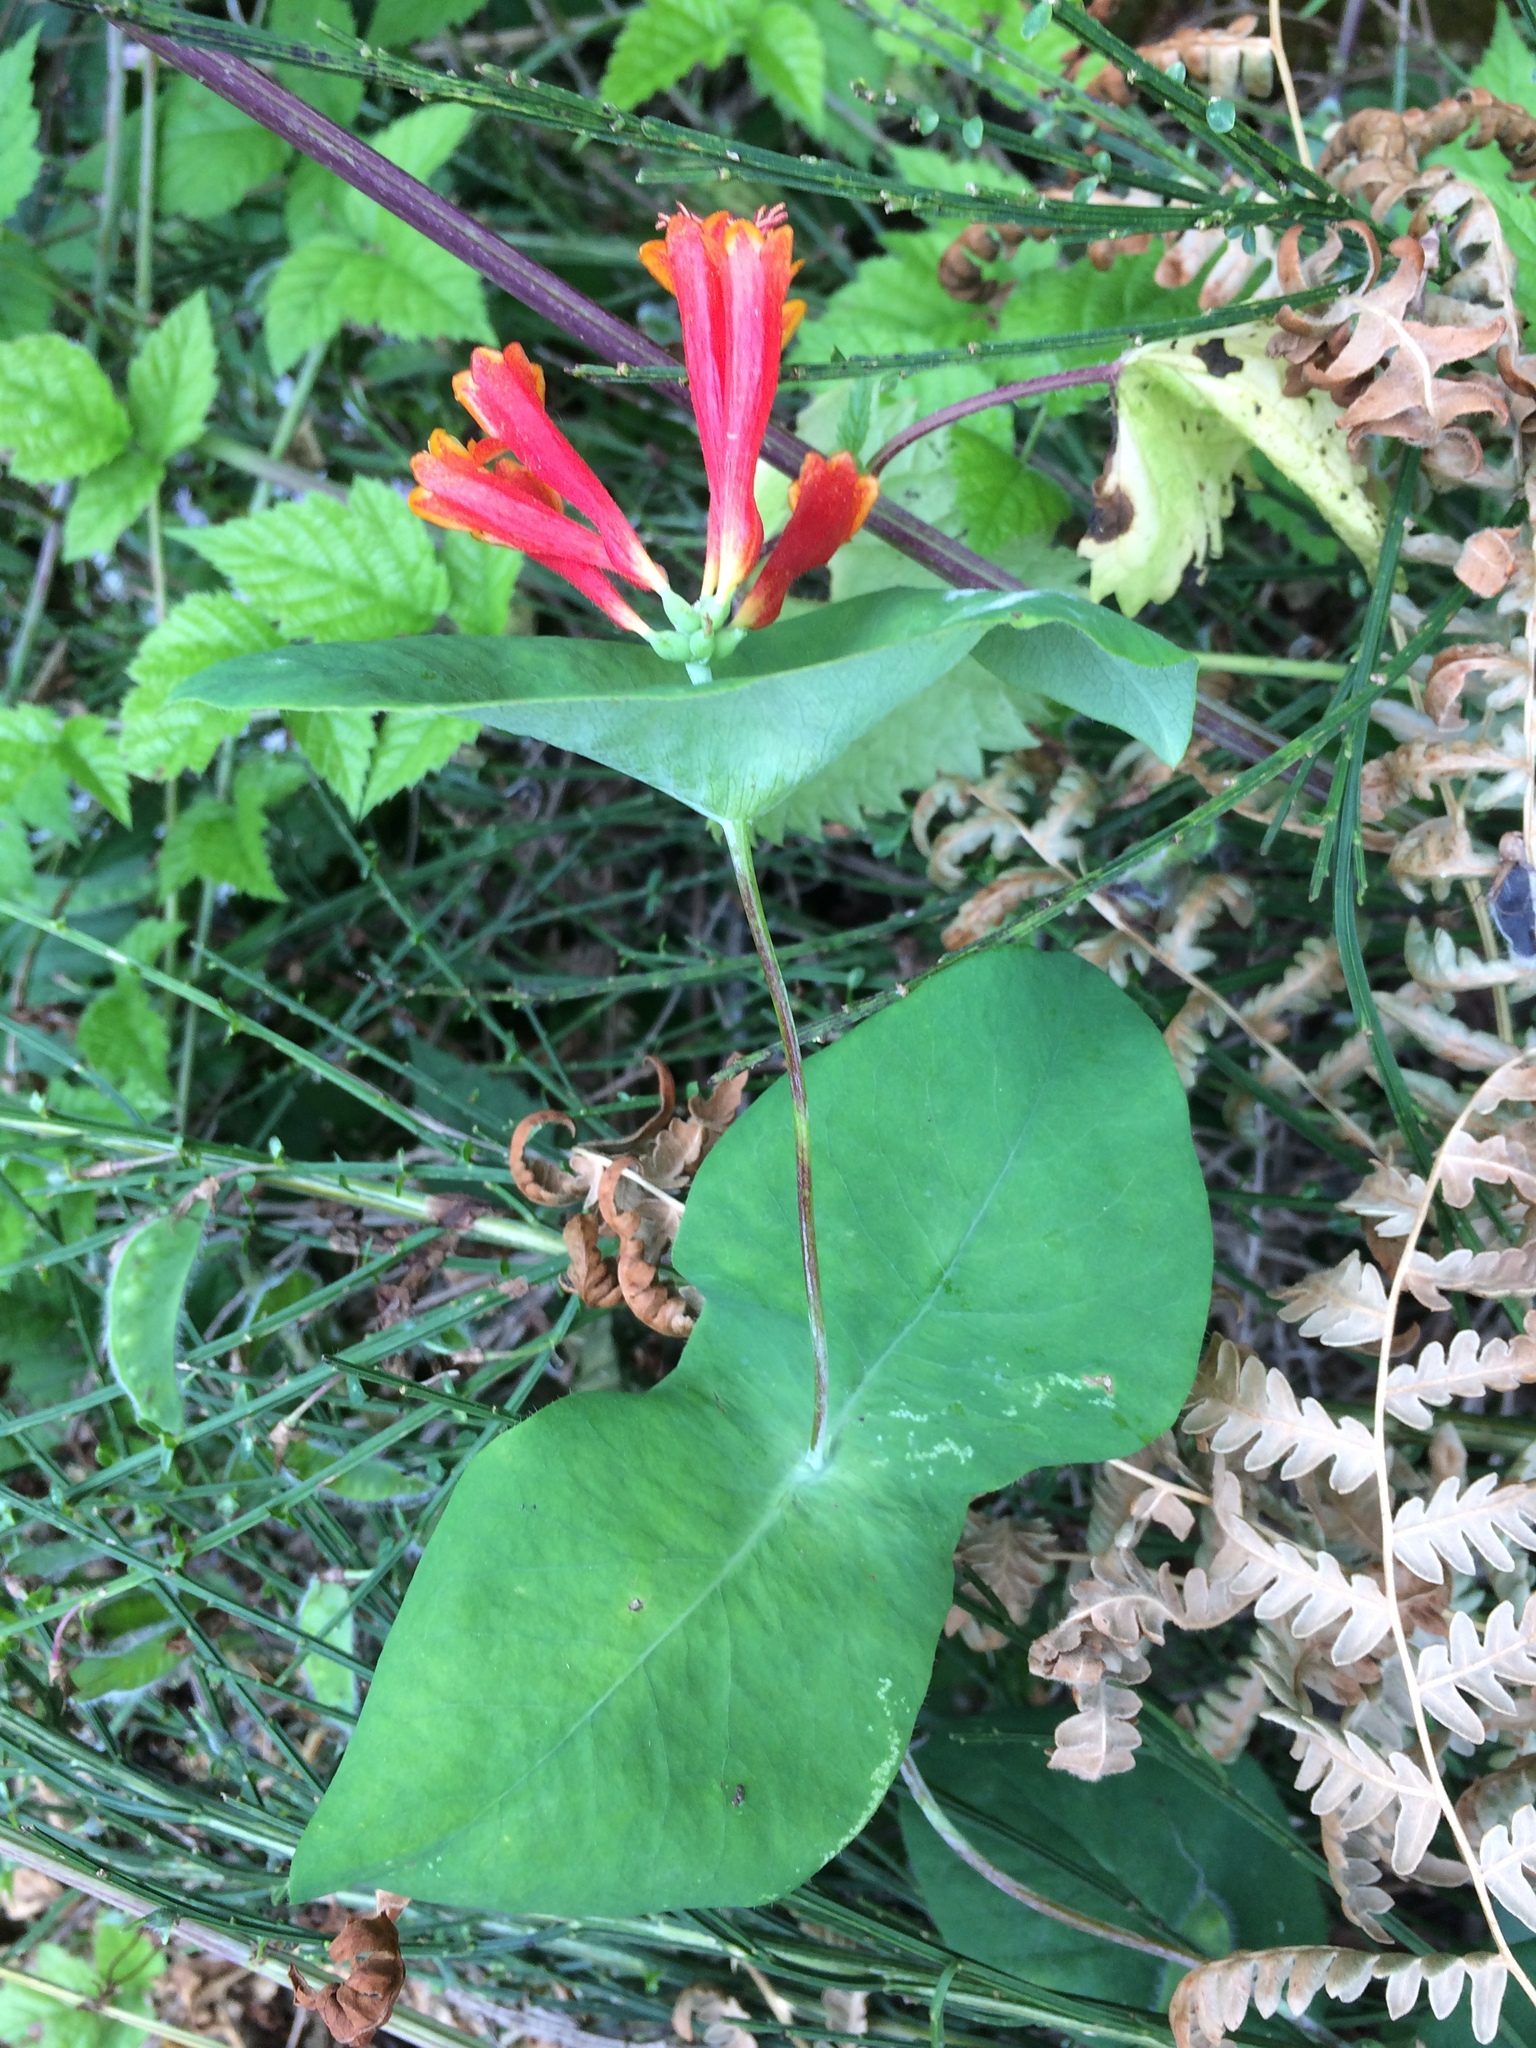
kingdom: Plantae
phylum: Tracheophyta
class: Magnoliopsida
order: Dipsacales
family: Caprifoliaceae
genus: Lonicera
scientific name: Lonicera ciliosa
